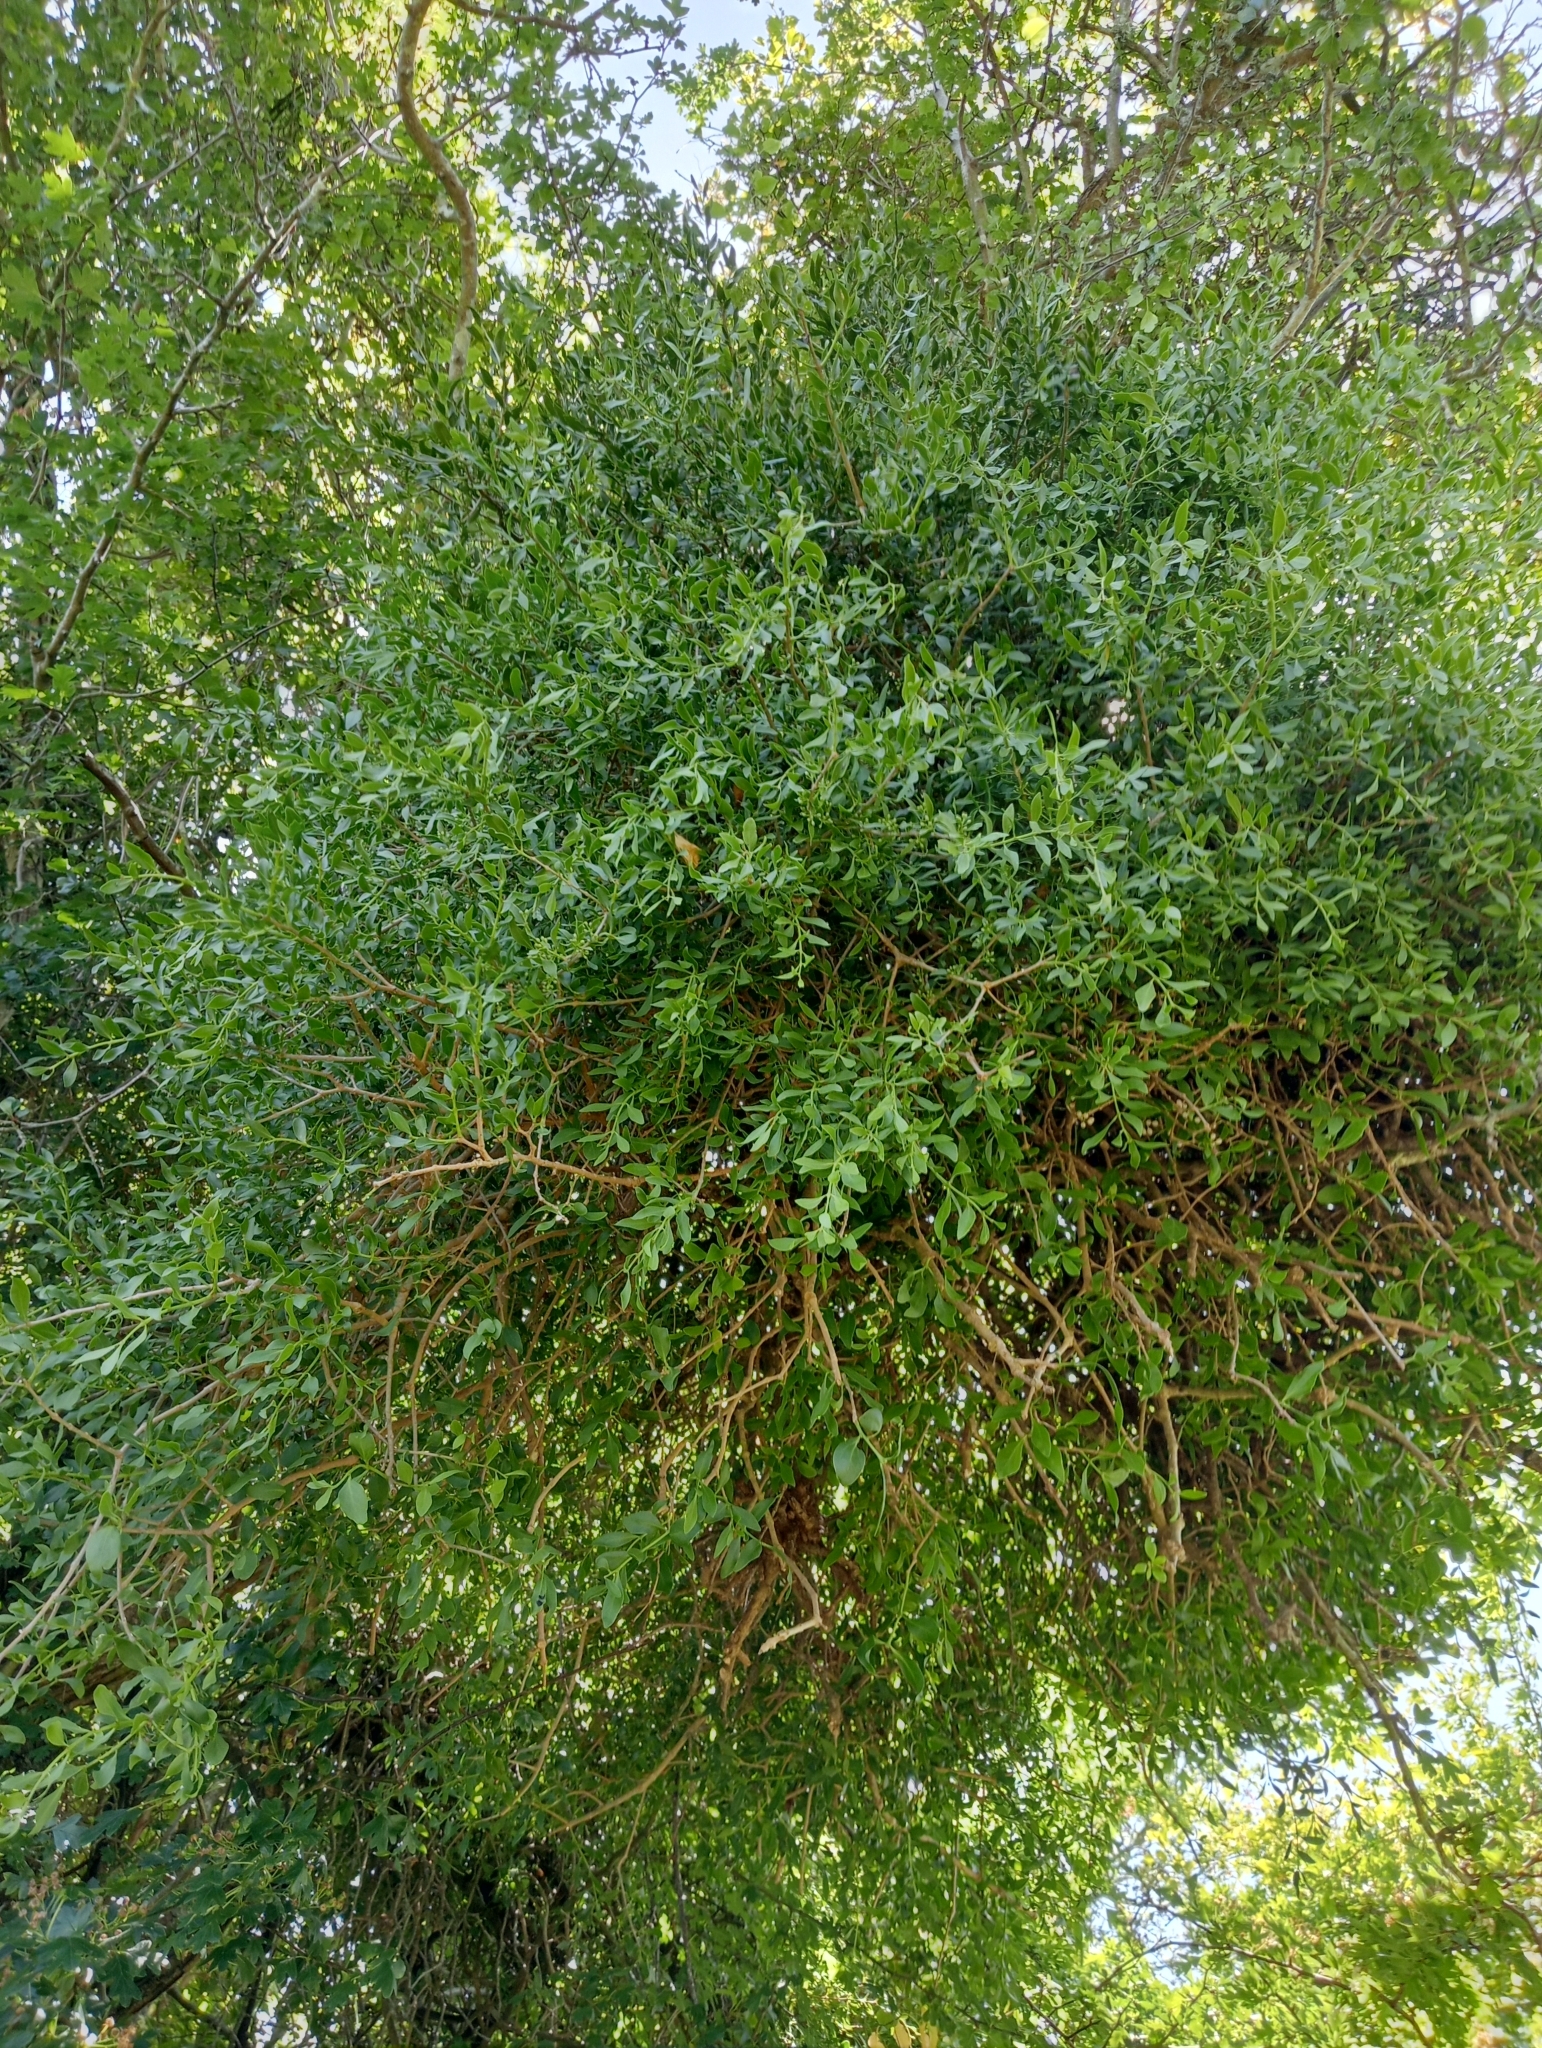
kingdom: Plantae
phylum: Tracheophyta
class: Magnoliopsida
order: Santalales
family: Loranthaceae
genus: Tupeia
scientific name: Tupeia antarctica
